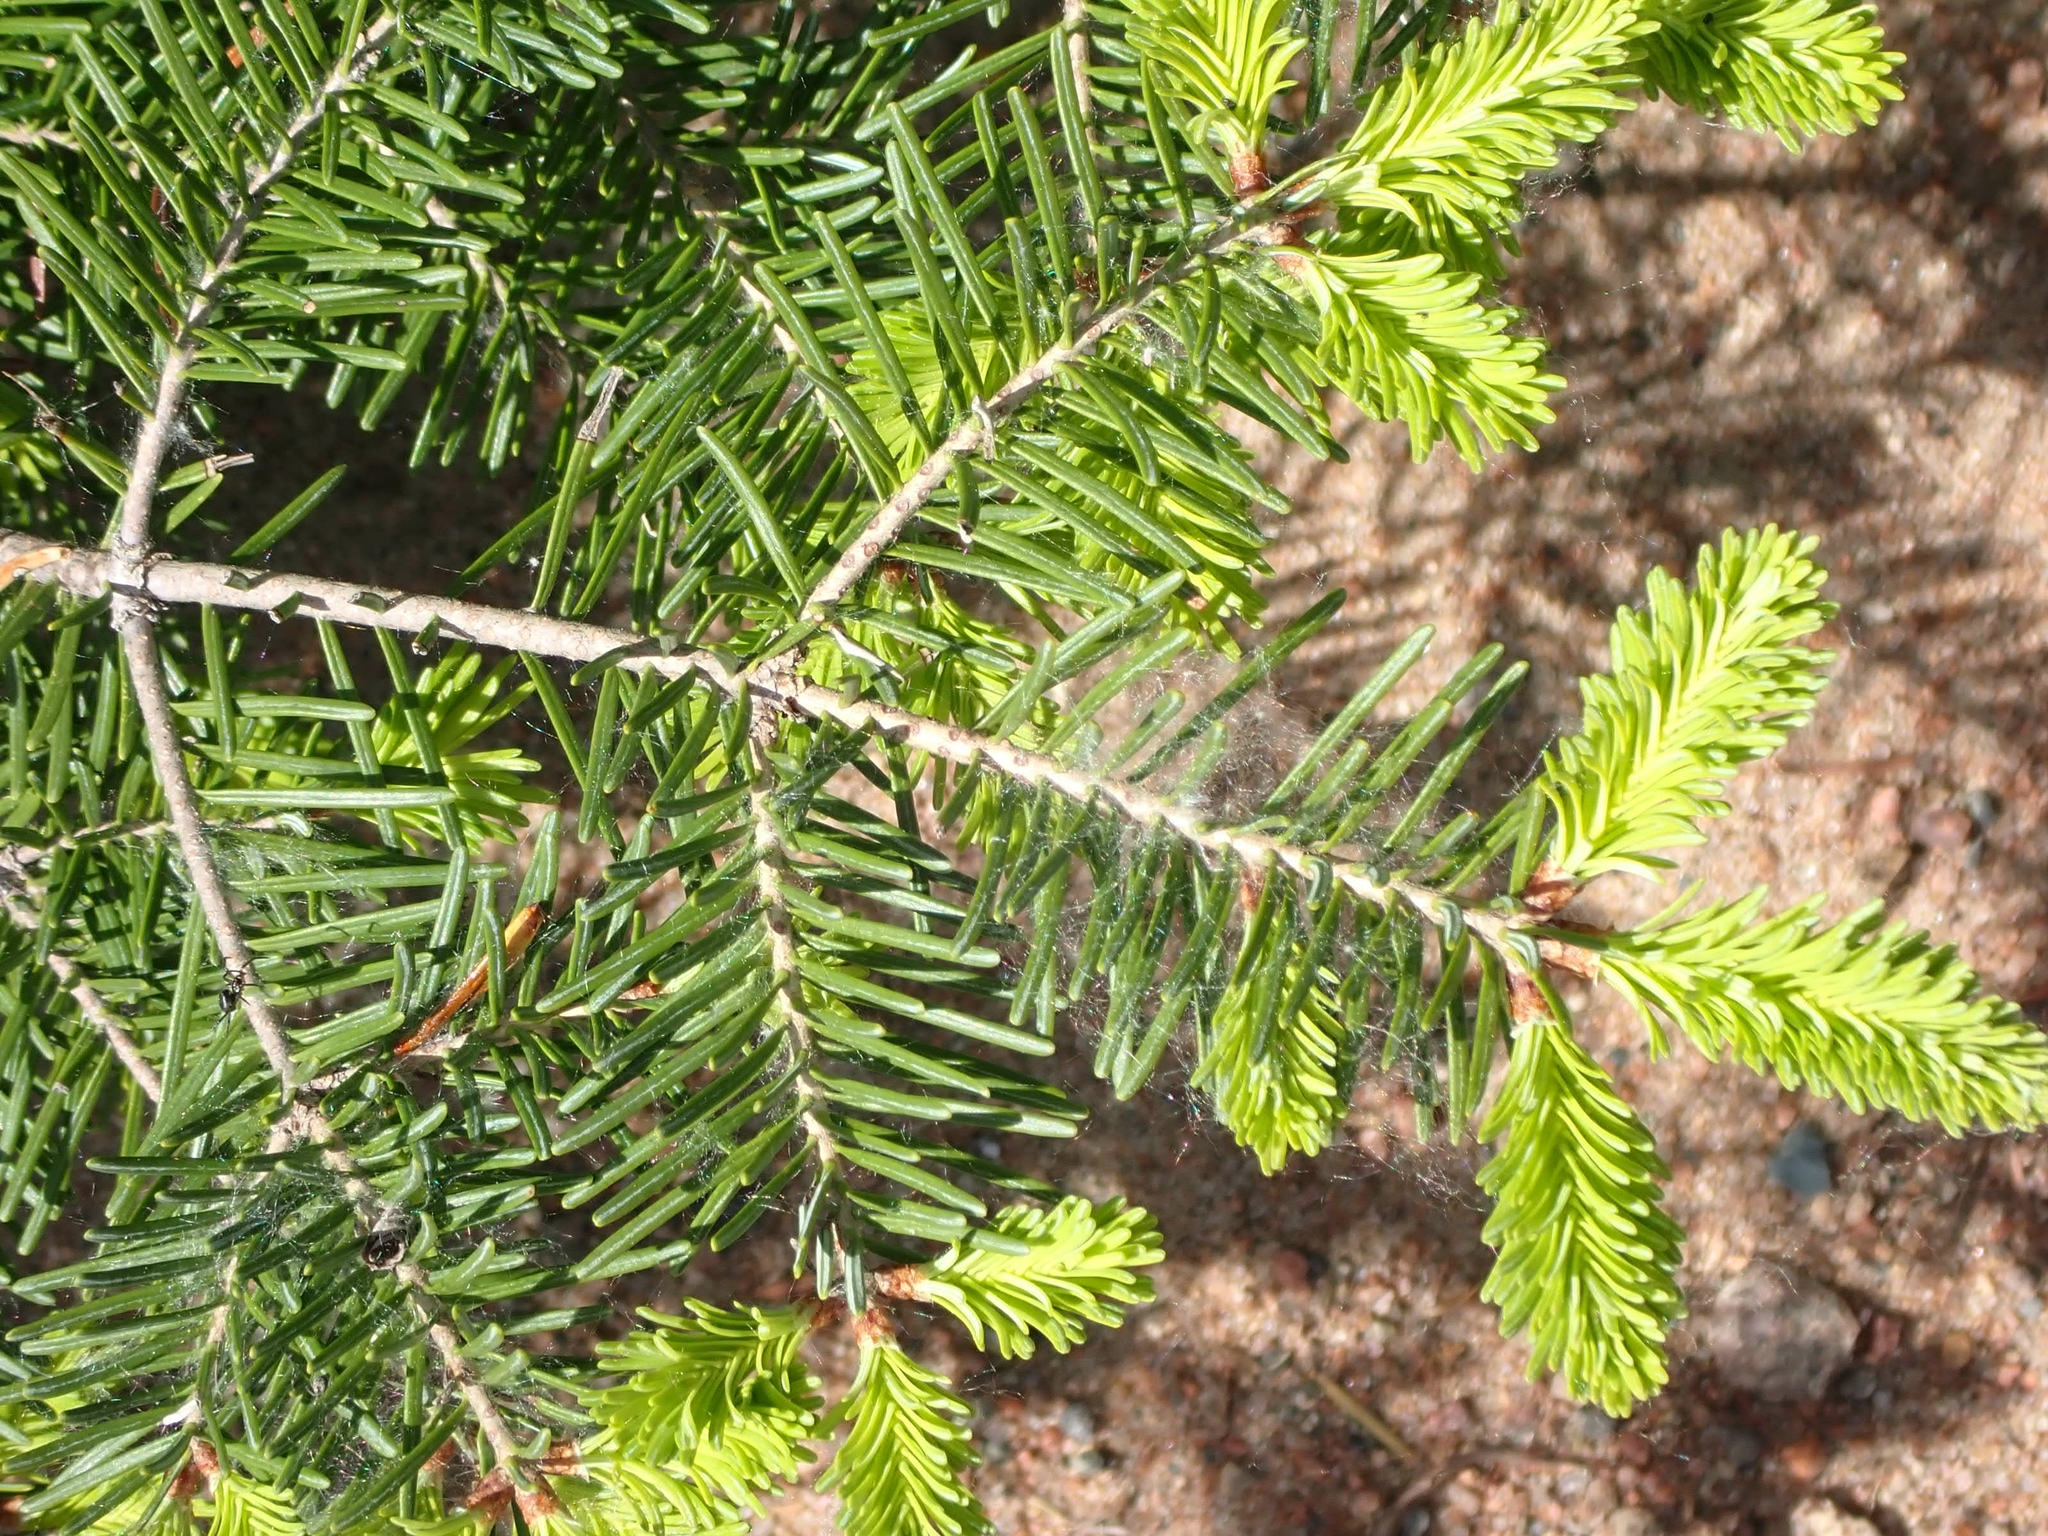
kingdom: Plantae
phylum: Tracheophyta
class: Pinopsida
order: Pinales
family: Pinaceae
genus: Abies
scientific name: Abies balsamea
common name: Balsam fir
